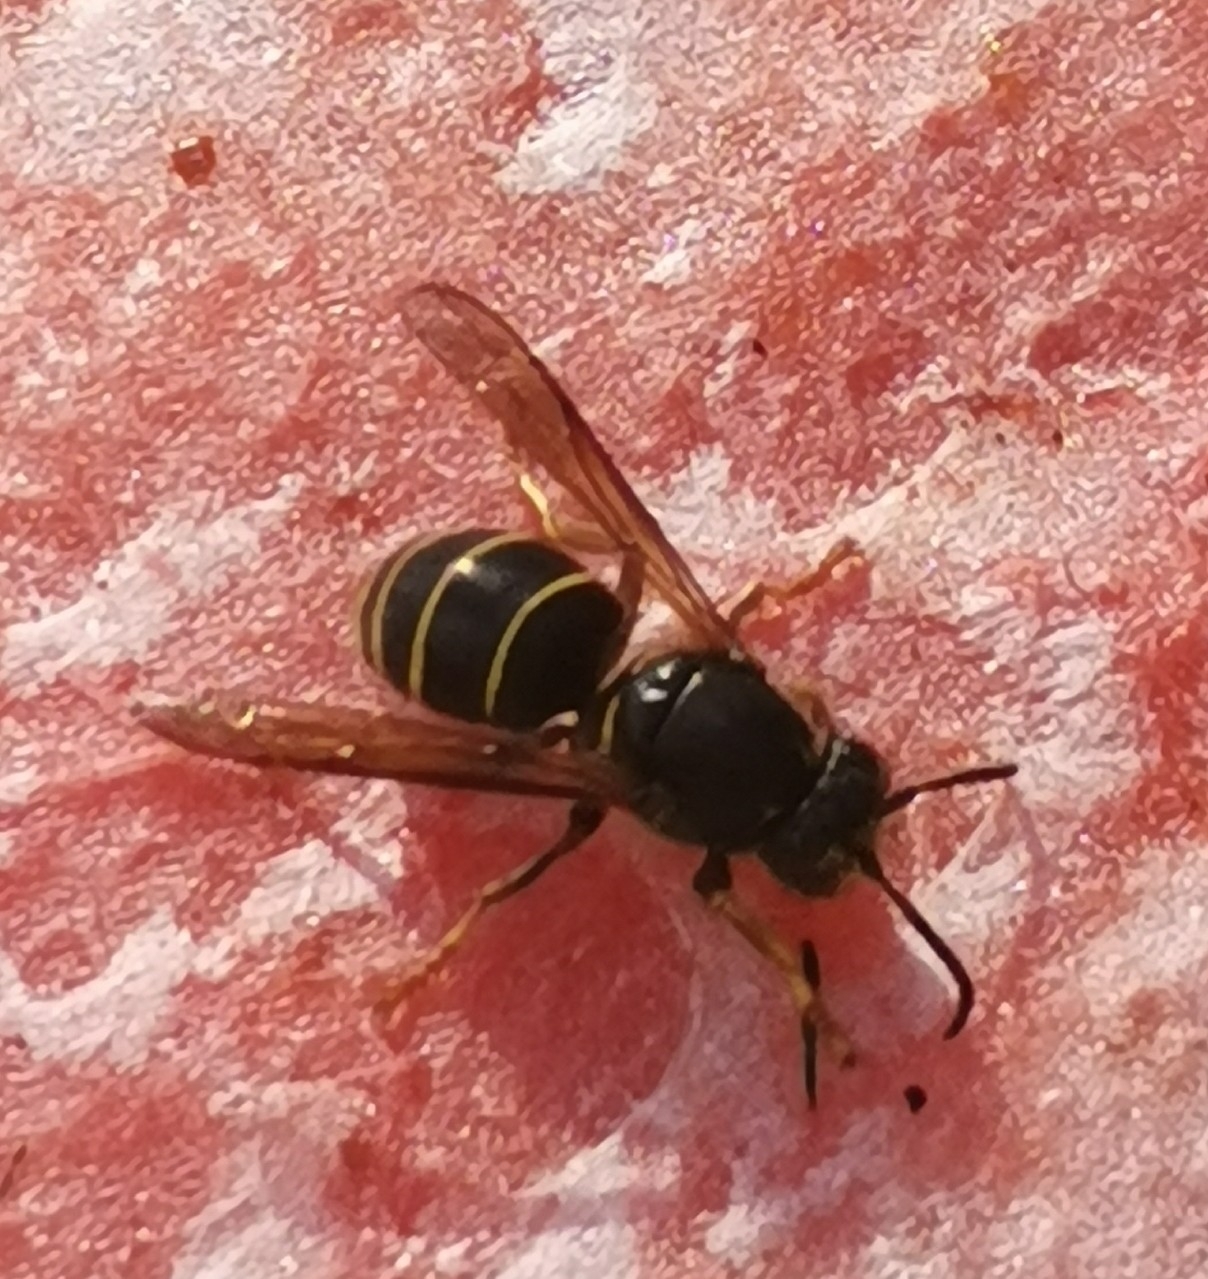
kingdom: Animalia
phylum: Arthropoda
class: Insecta
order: Hymenoptera
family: Vespidae
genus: Dolichovespula
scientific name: Dolichovespula media
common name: Median wasp
